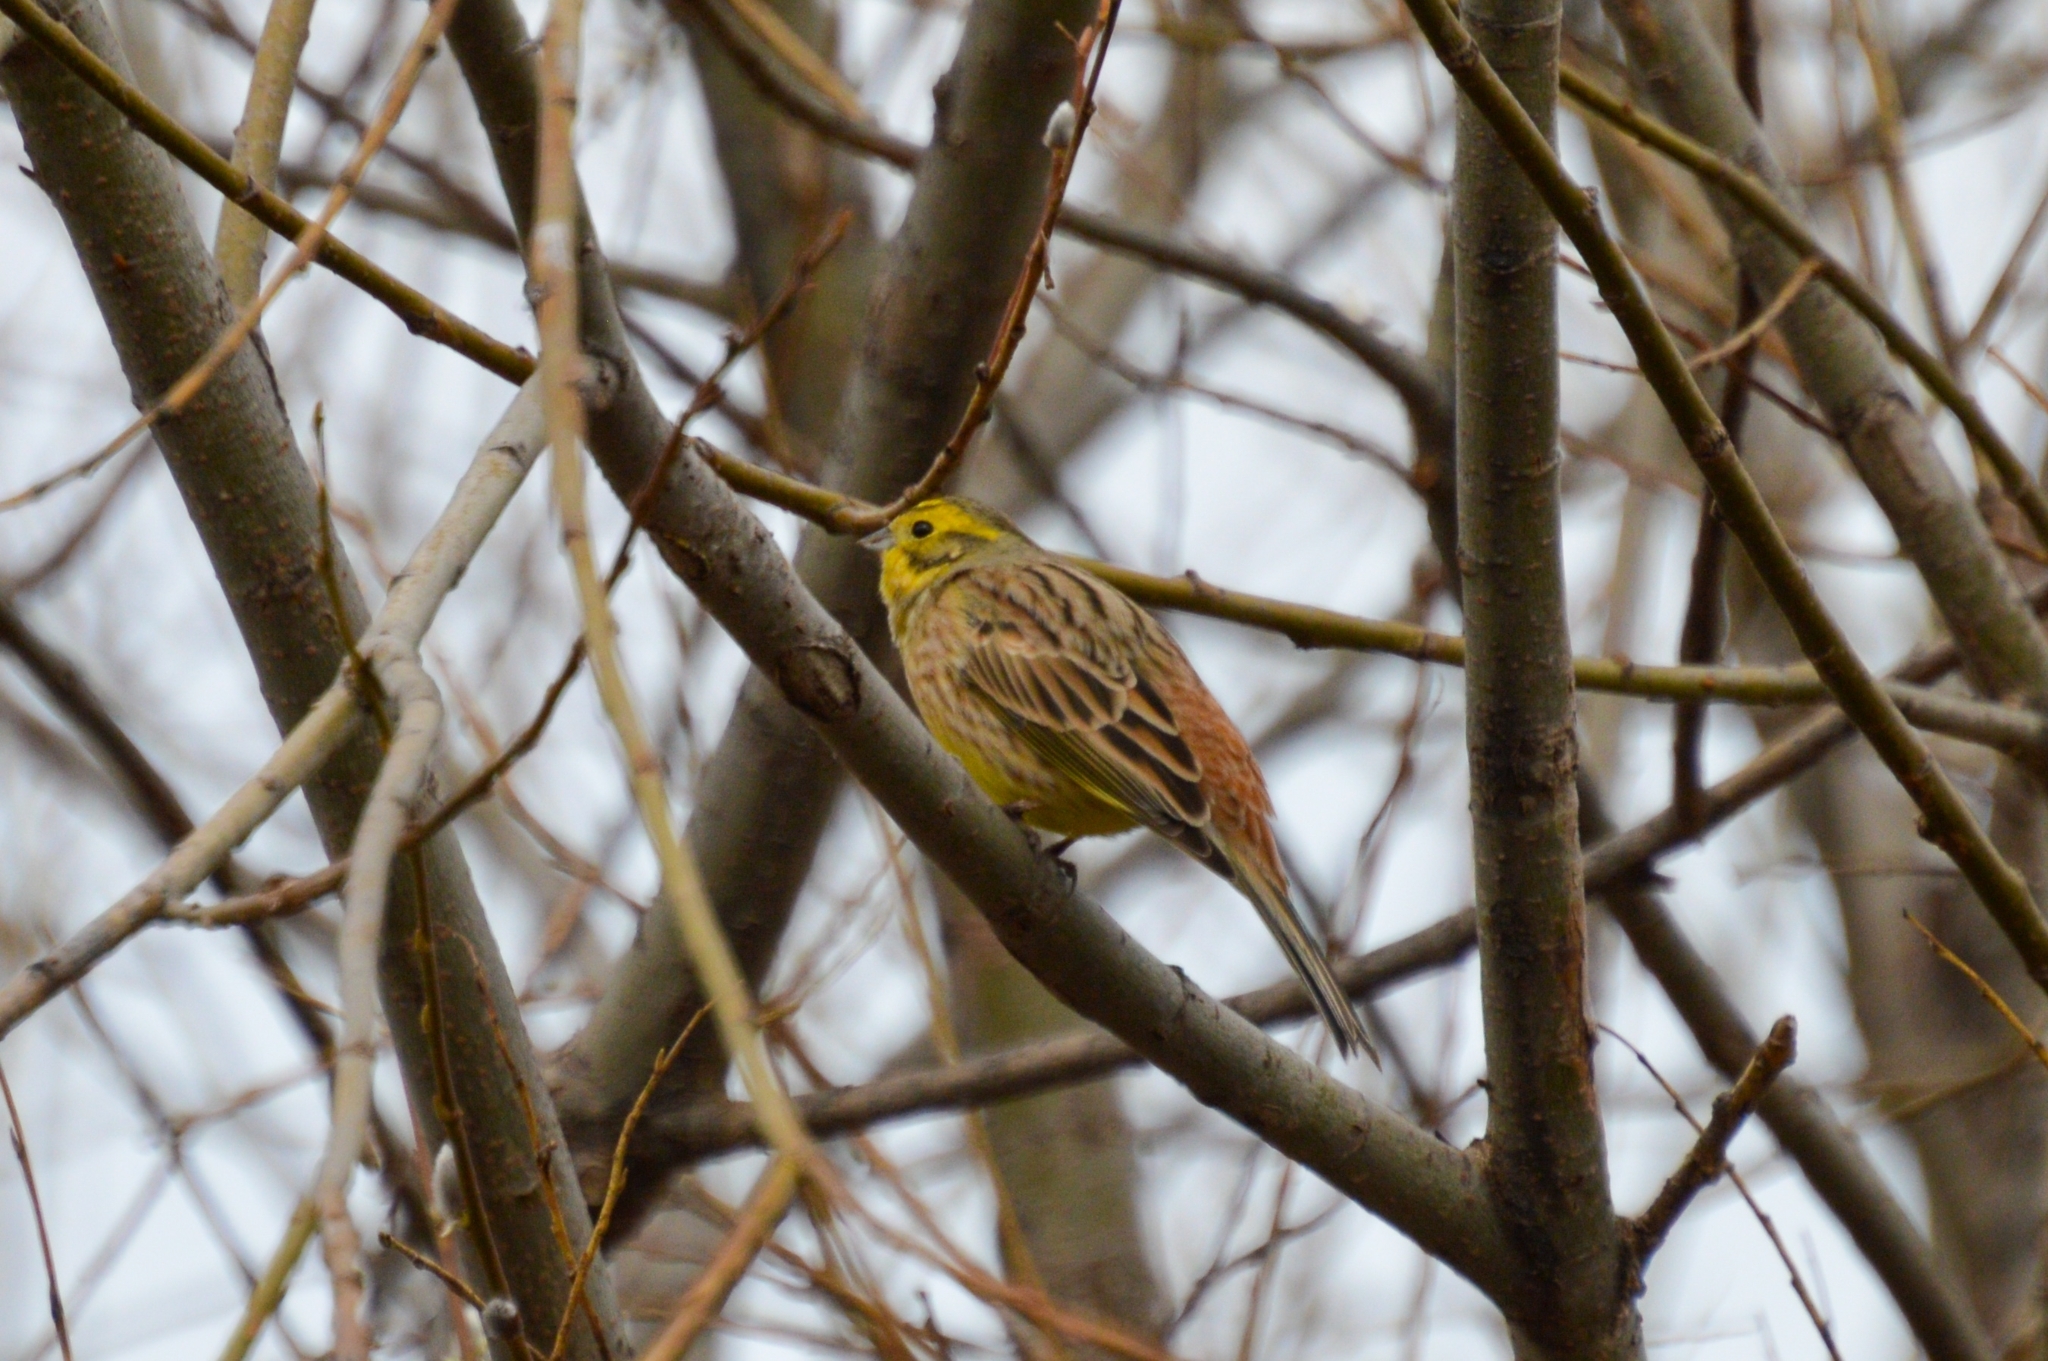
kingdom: Animalia
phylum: Chordata
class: Aves
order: Passeriformes
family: Emberizidae
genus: Emberiza
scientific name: Emberiza citrinella
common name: Yellowhammer
